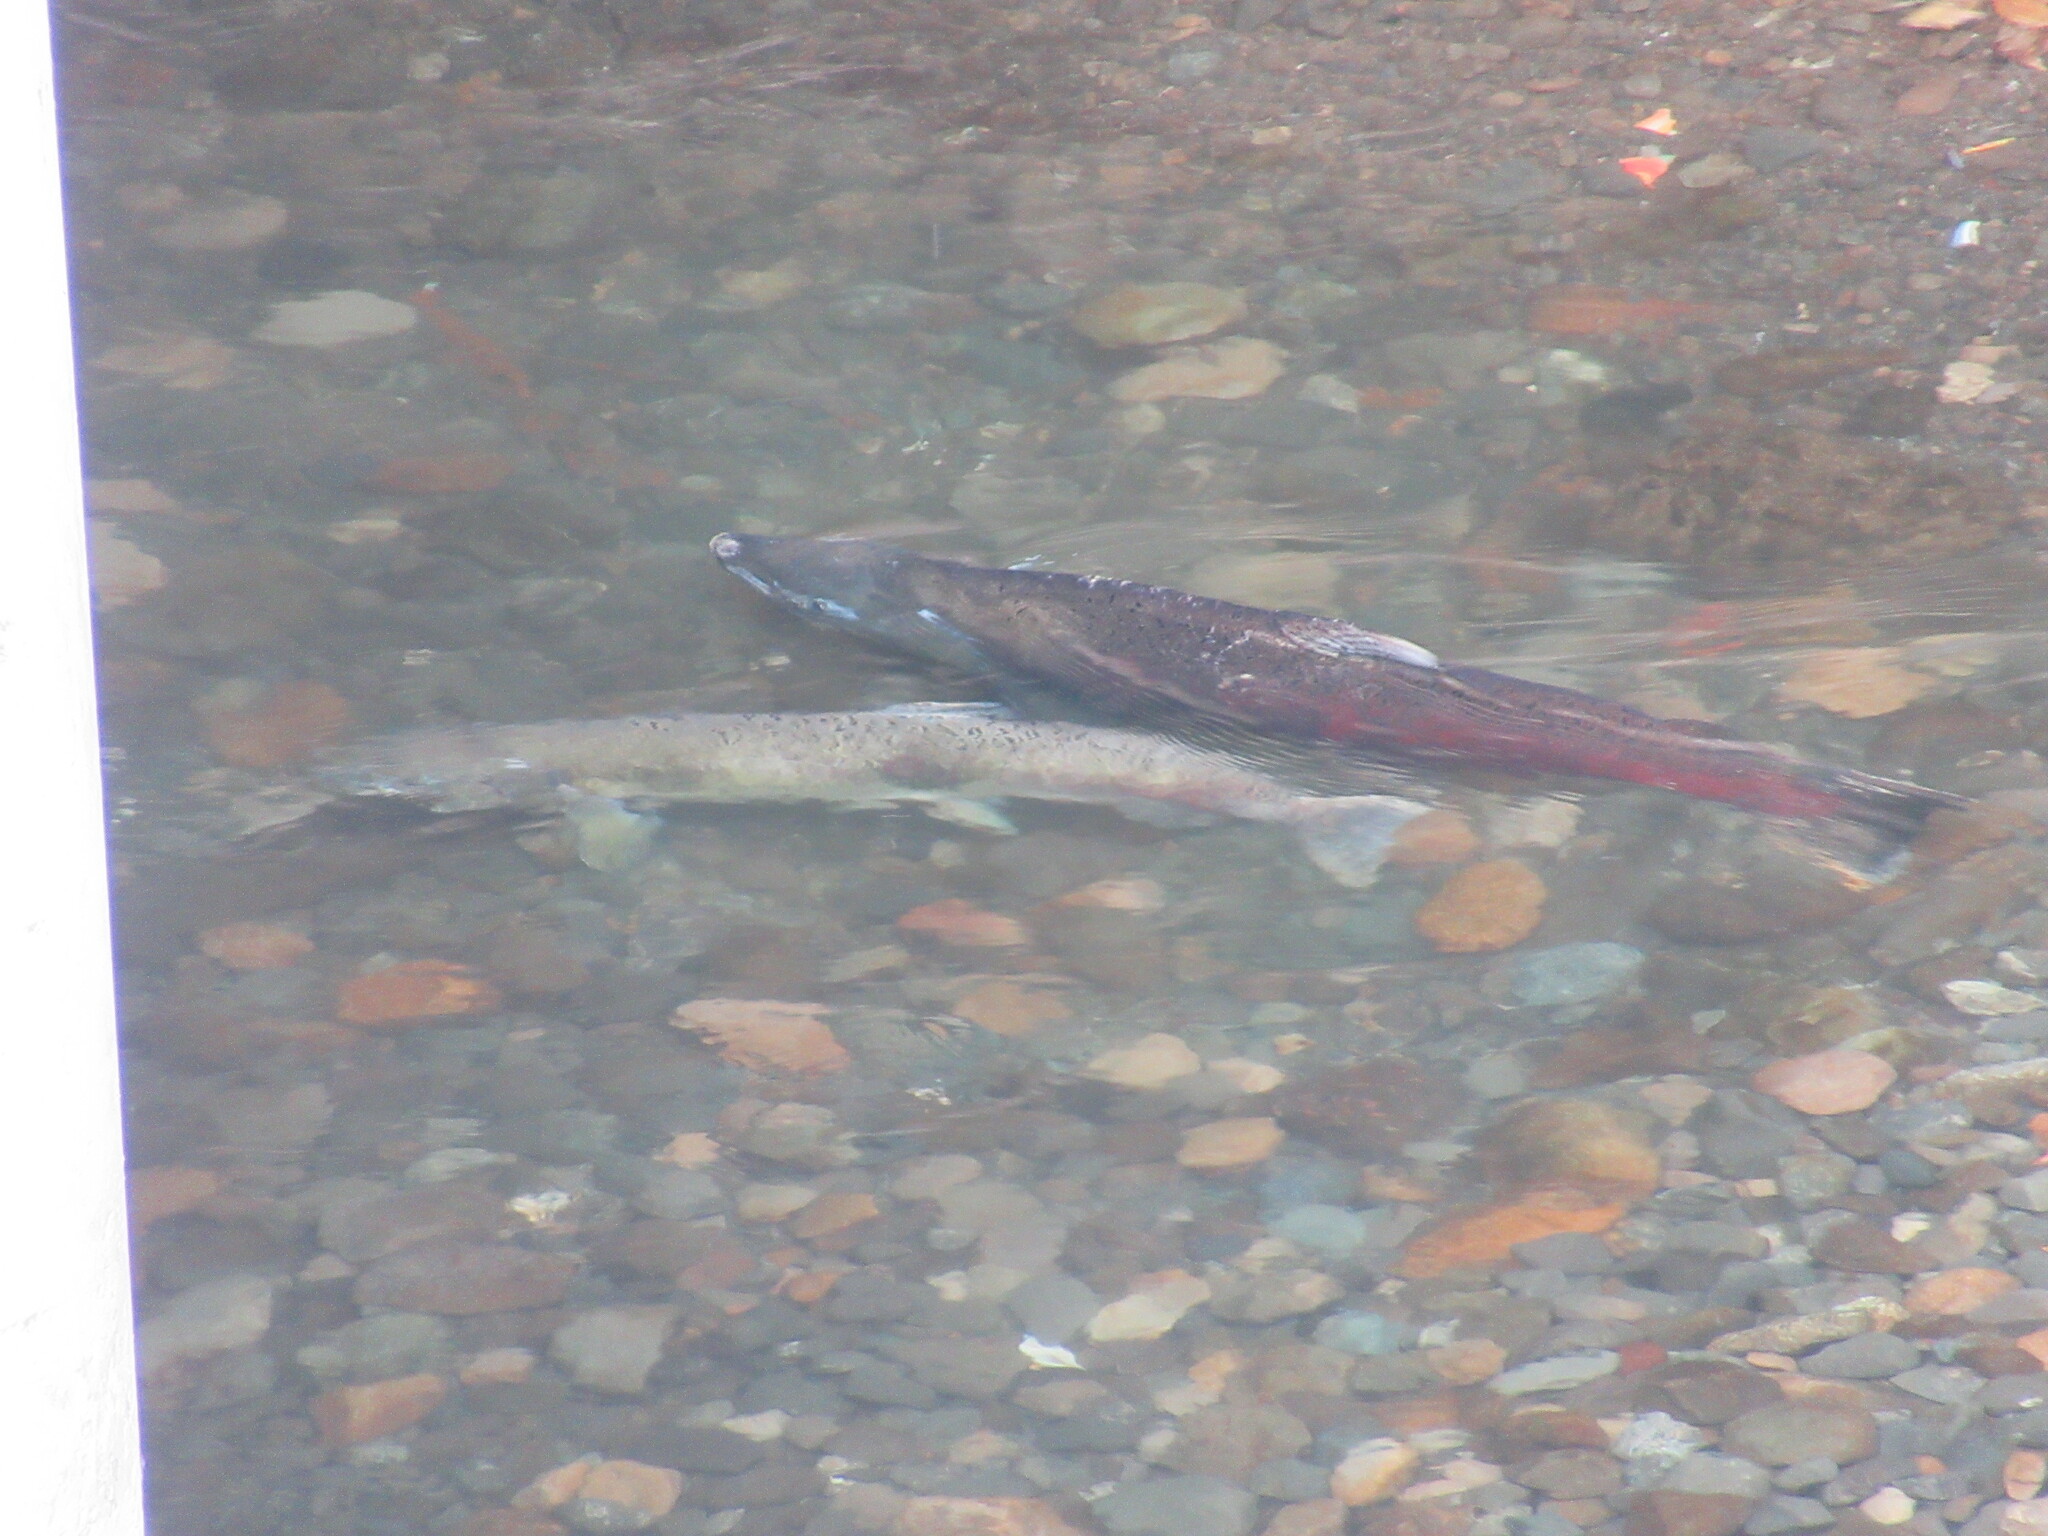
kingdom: Animalia
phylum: Chordata
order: Salmoniformes
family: Salmonidae
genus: Oncorhynchus
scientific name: Oncorhynchus tshawytscha
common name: Chinook salmon
